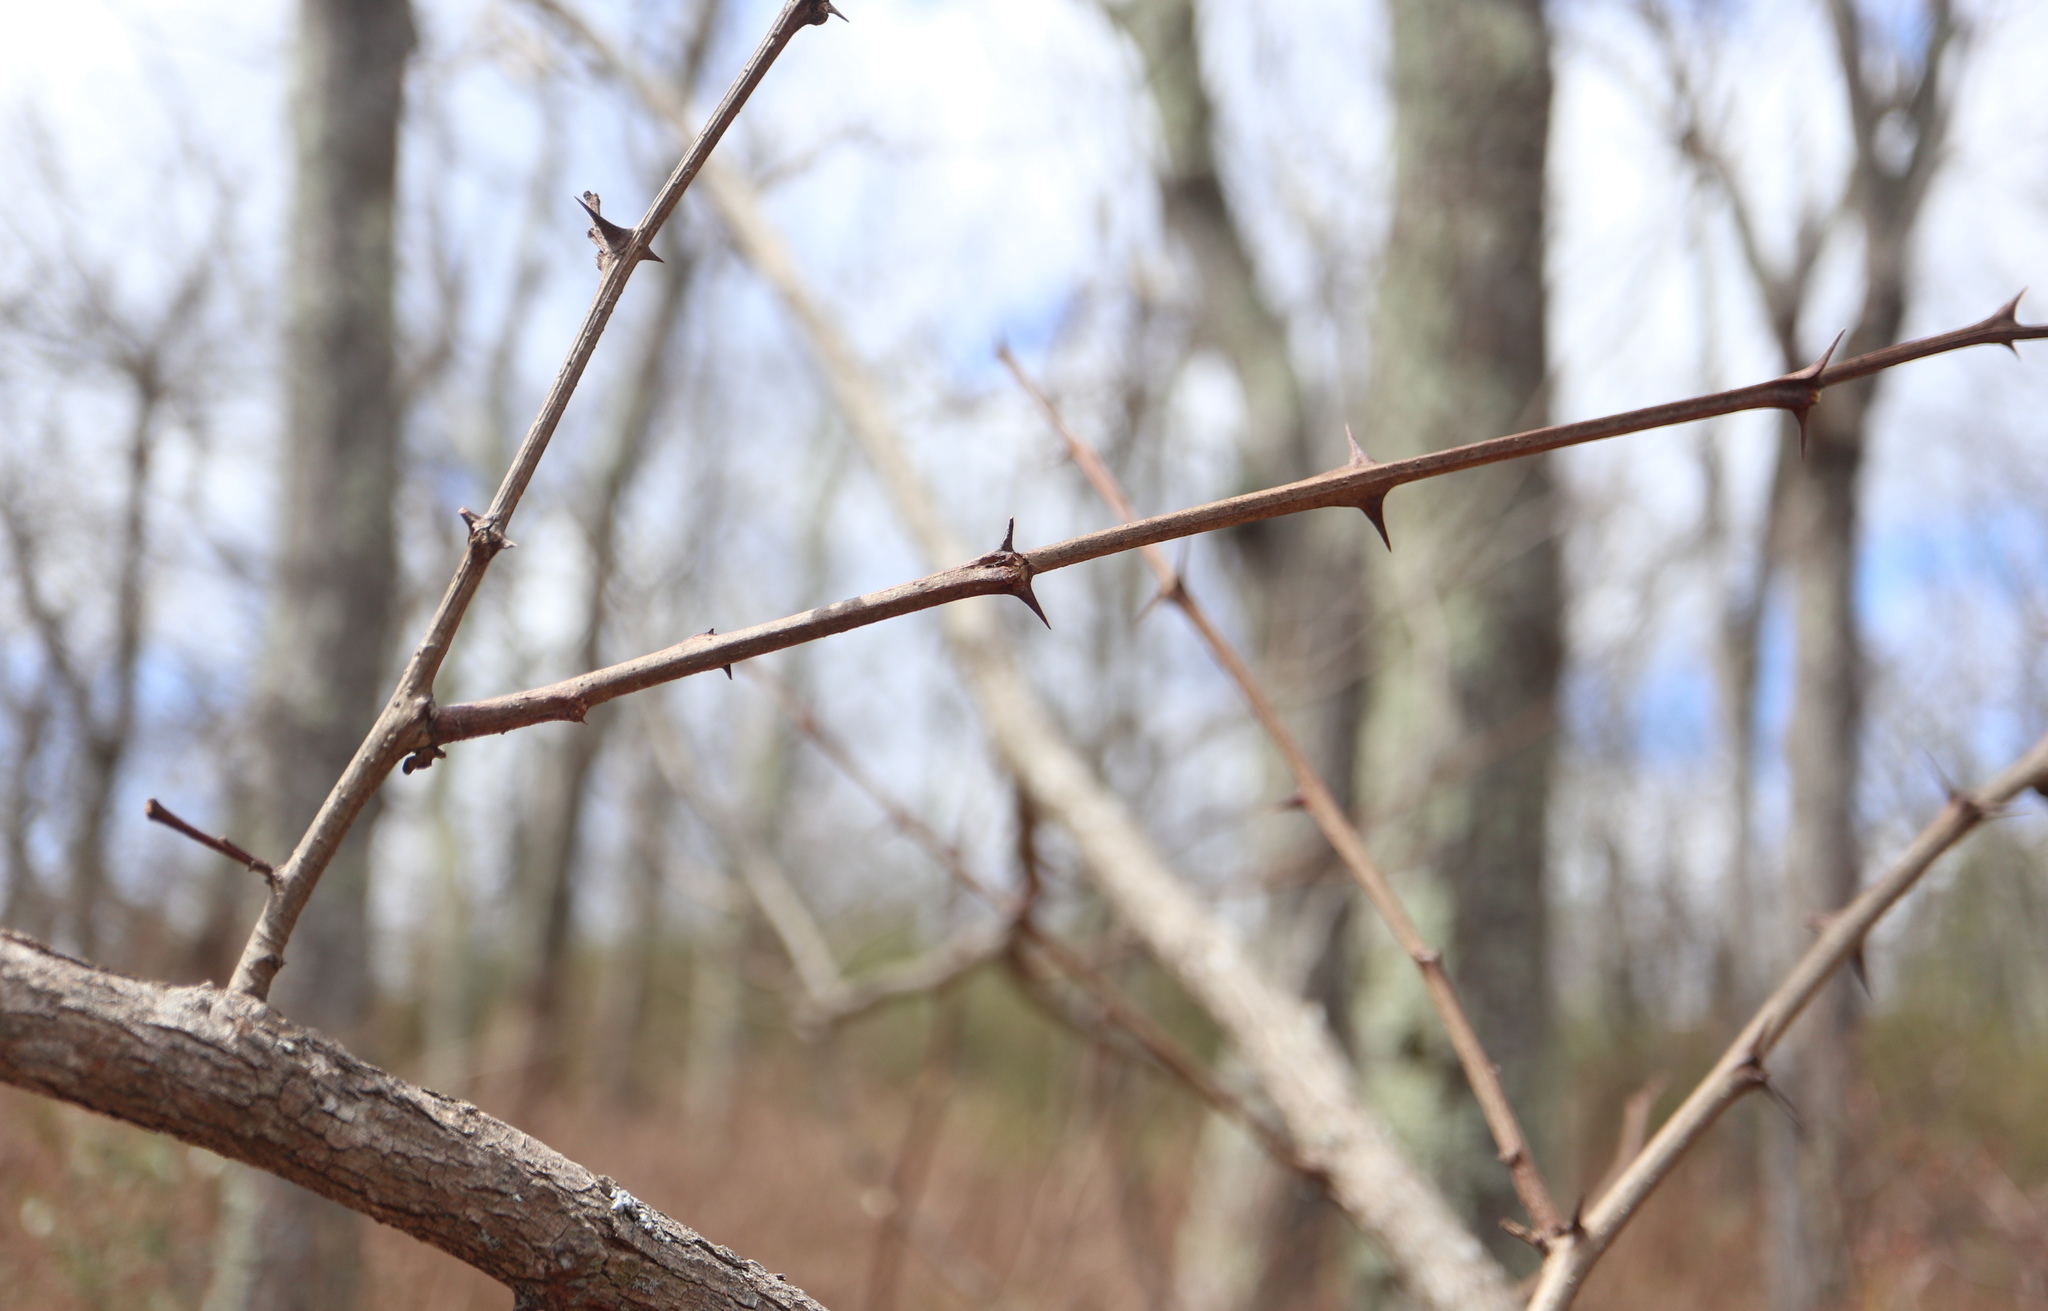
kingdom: Plantae
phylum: Tracheophyta
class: Magnoliopsida
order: Fabales
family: Fabaceae
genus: Robinia
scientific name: Robinia pseudoacacia
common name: Black locust
